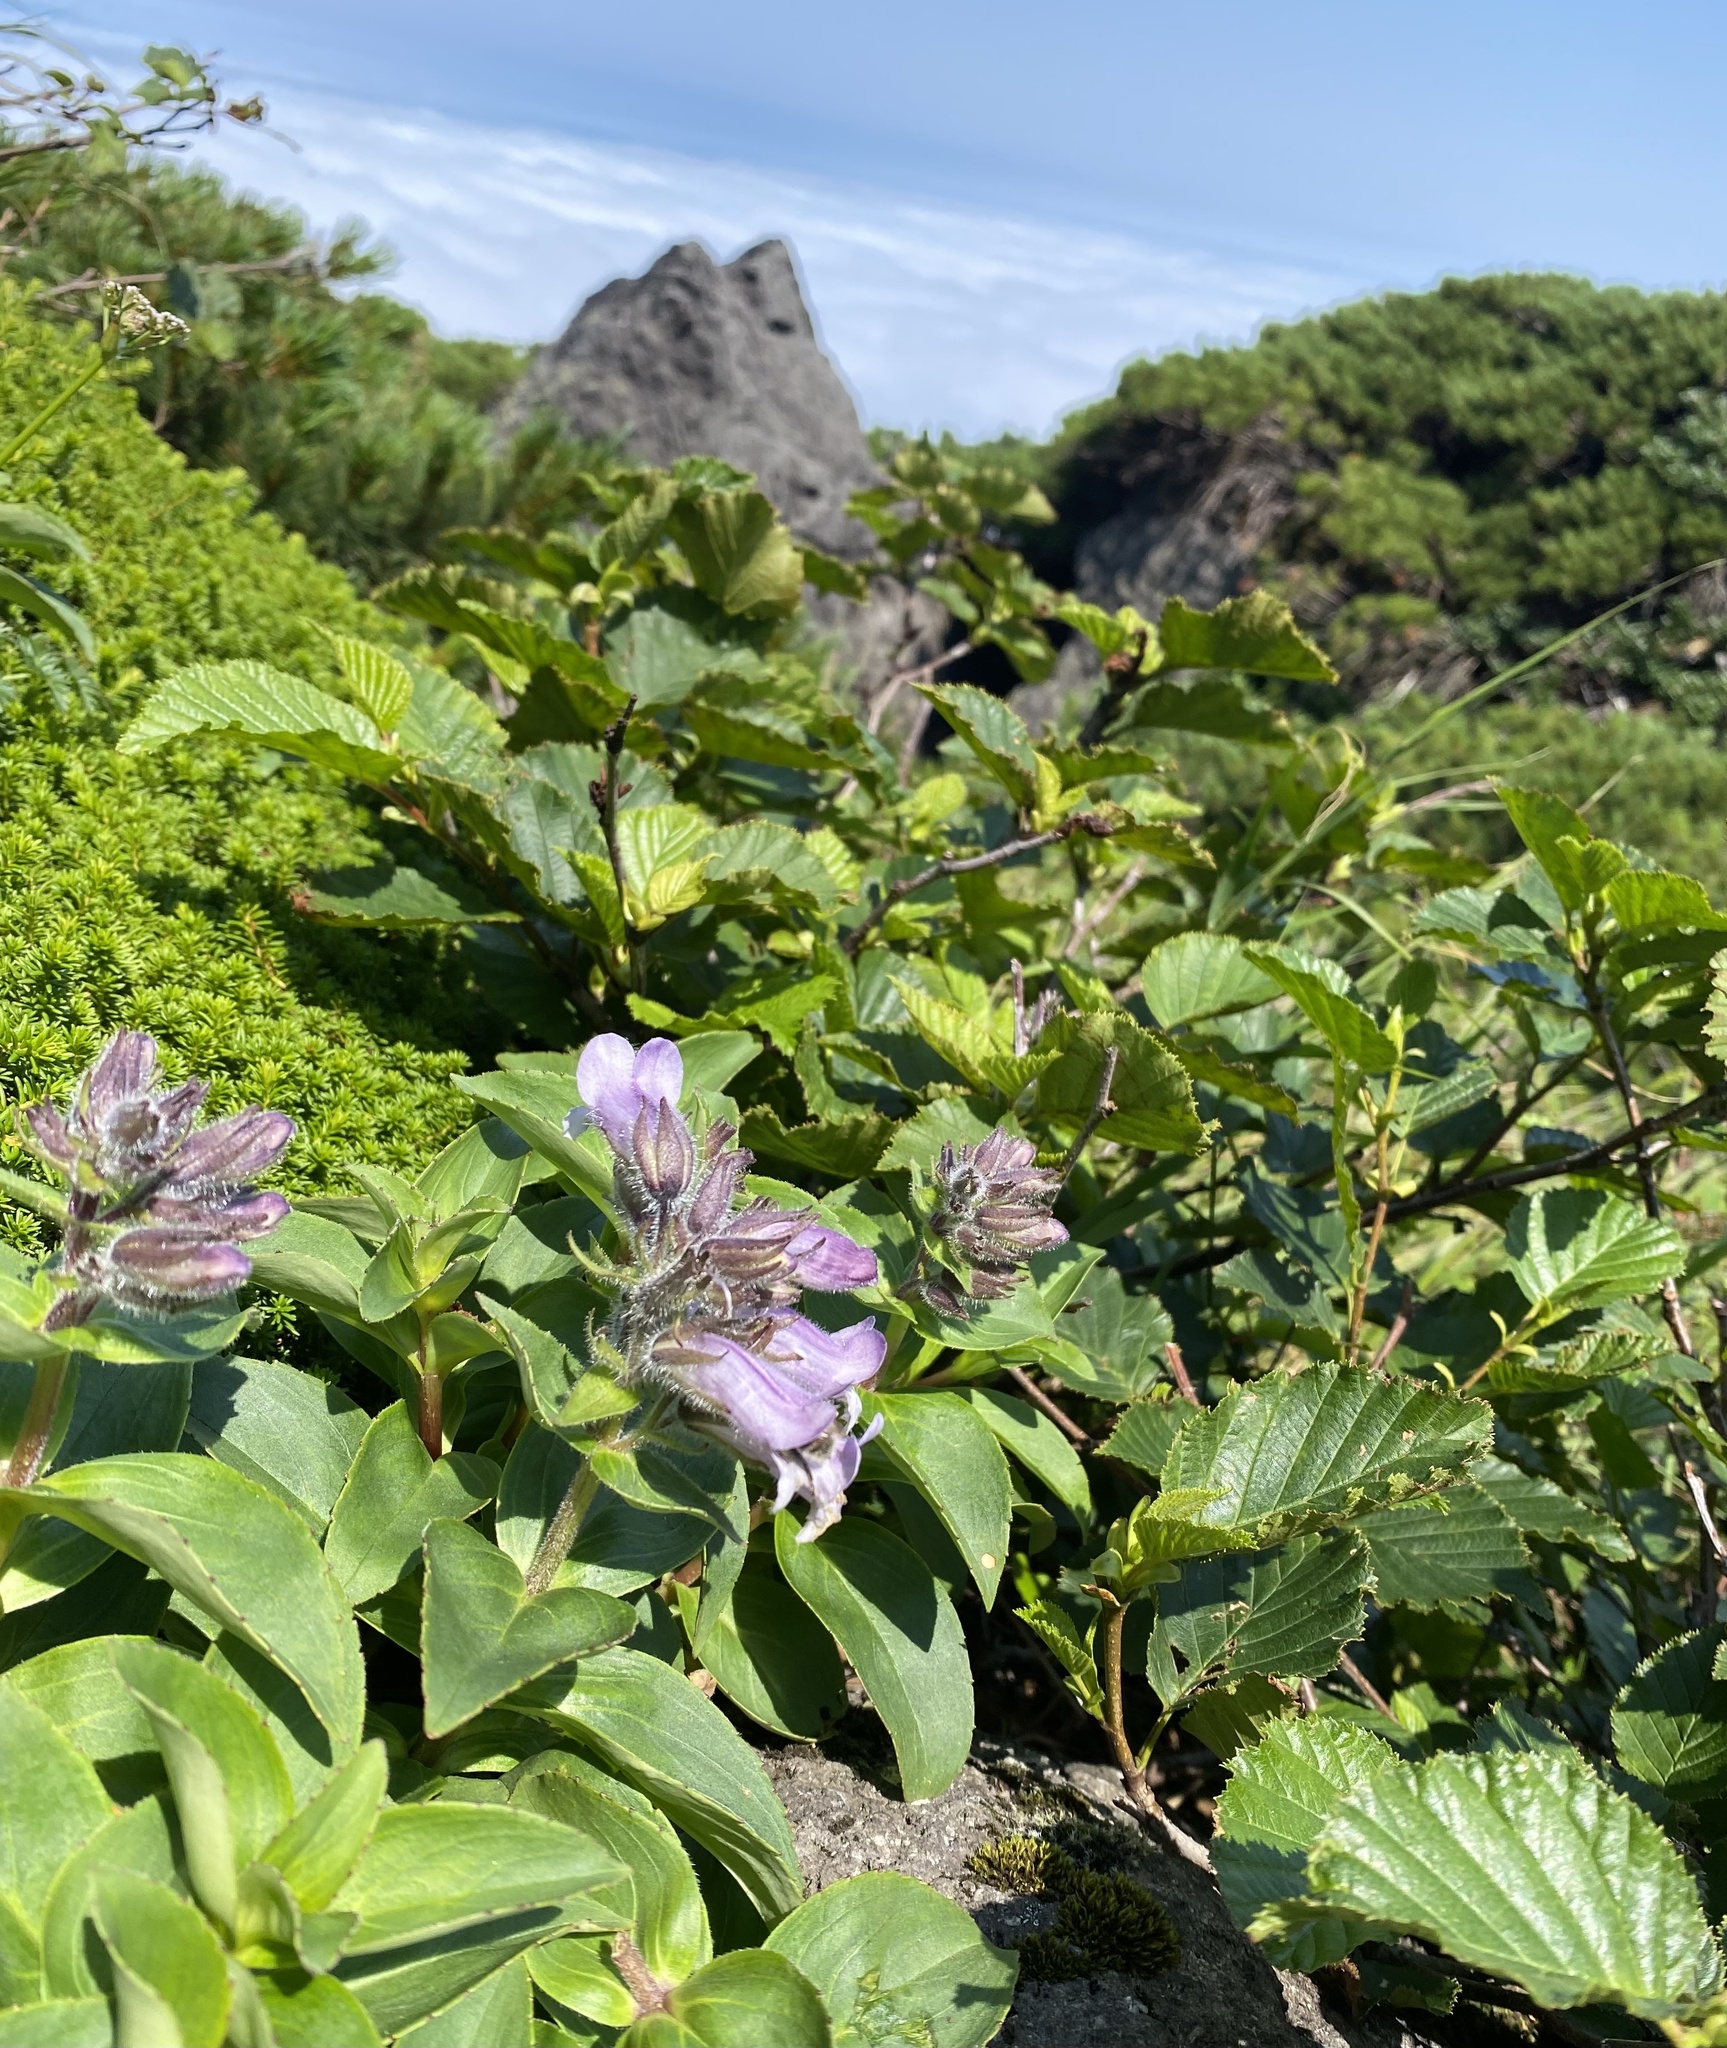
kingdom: Plantae
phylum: Tracheophyta
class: Magnoliopsida
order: Lamiales
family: Plantaginaceae
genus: Pennellianthus
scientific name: Pennellianthus frutescens
